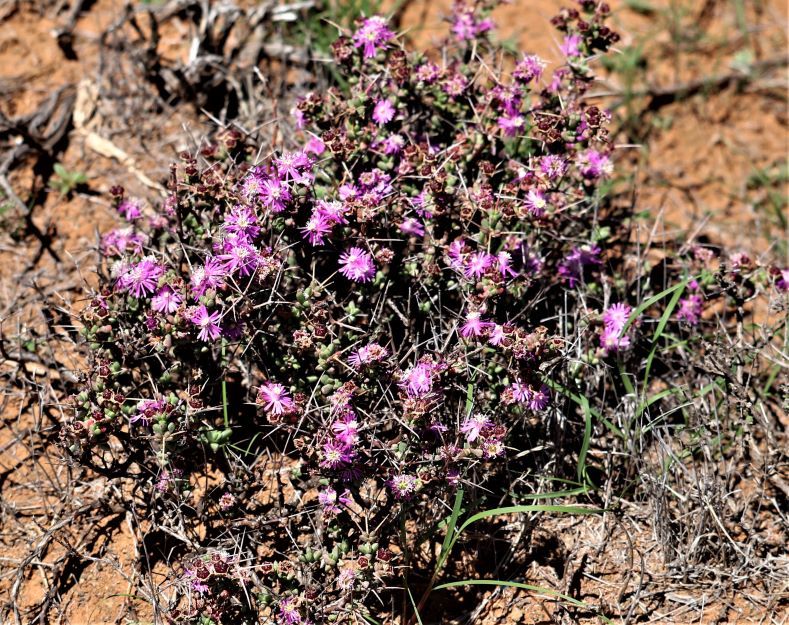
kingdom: Plantae
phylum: Tracheophyta
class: Magnoliopsida
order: Caryophyllales
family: Aizoaceae
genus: Ruschia
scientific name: Ruschia intricata
